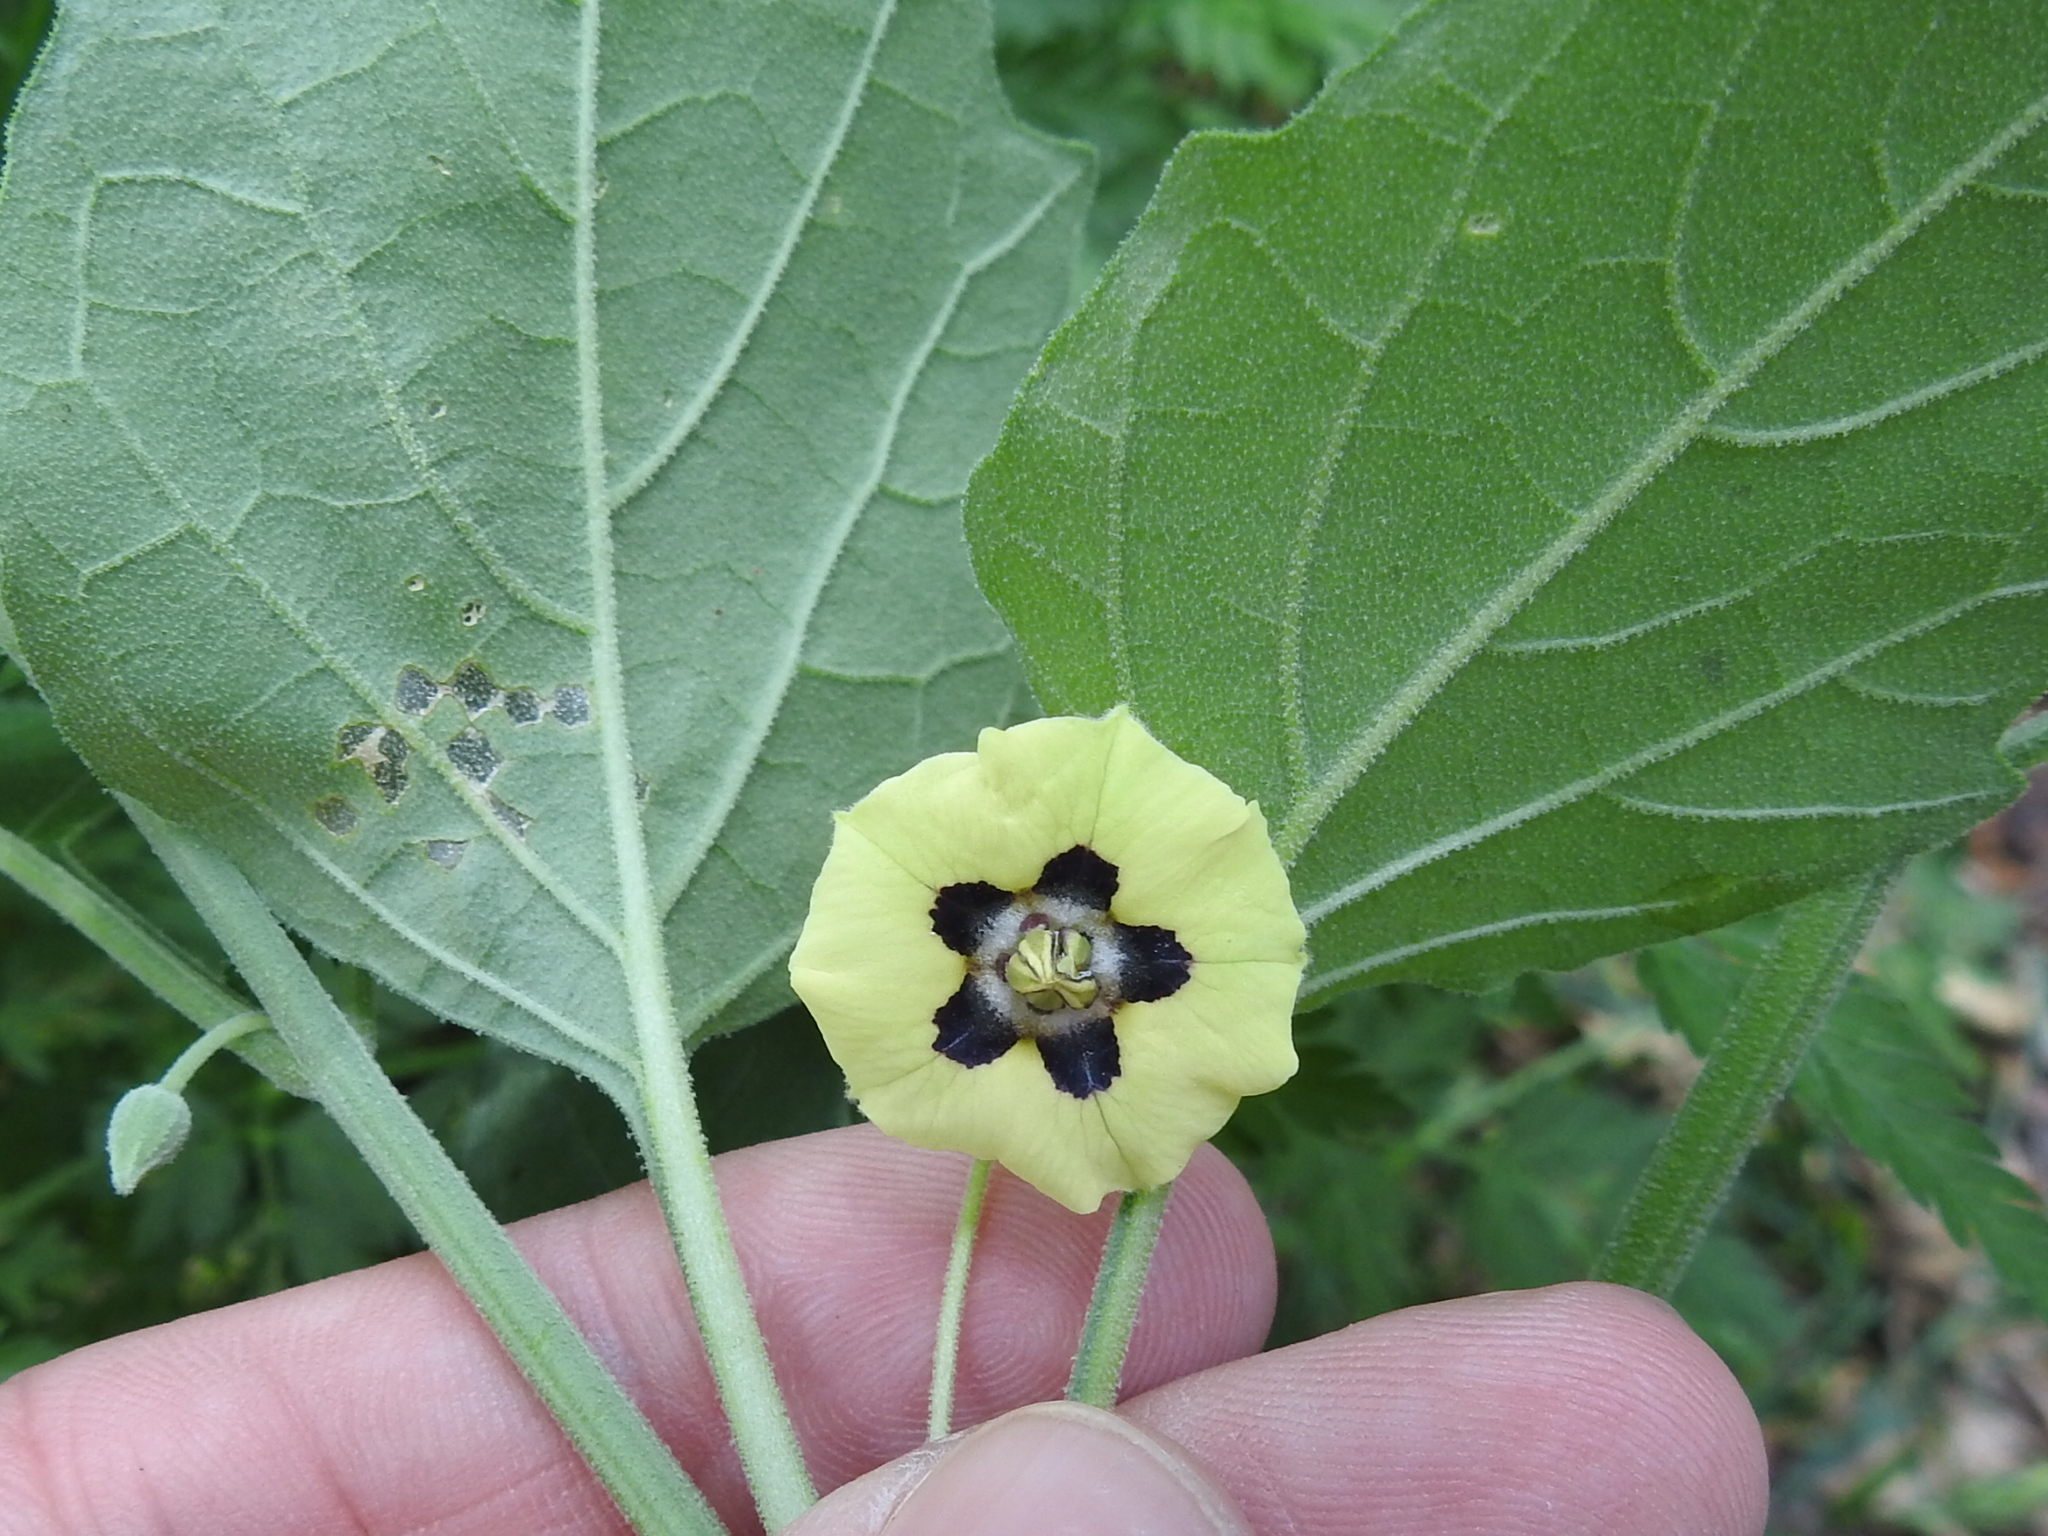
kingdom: Plantae
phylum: Tracheophyta
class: Magnoliopsida
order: Solanales
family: Solanaceae
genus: Physalis
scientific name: Physalis cinerascens
